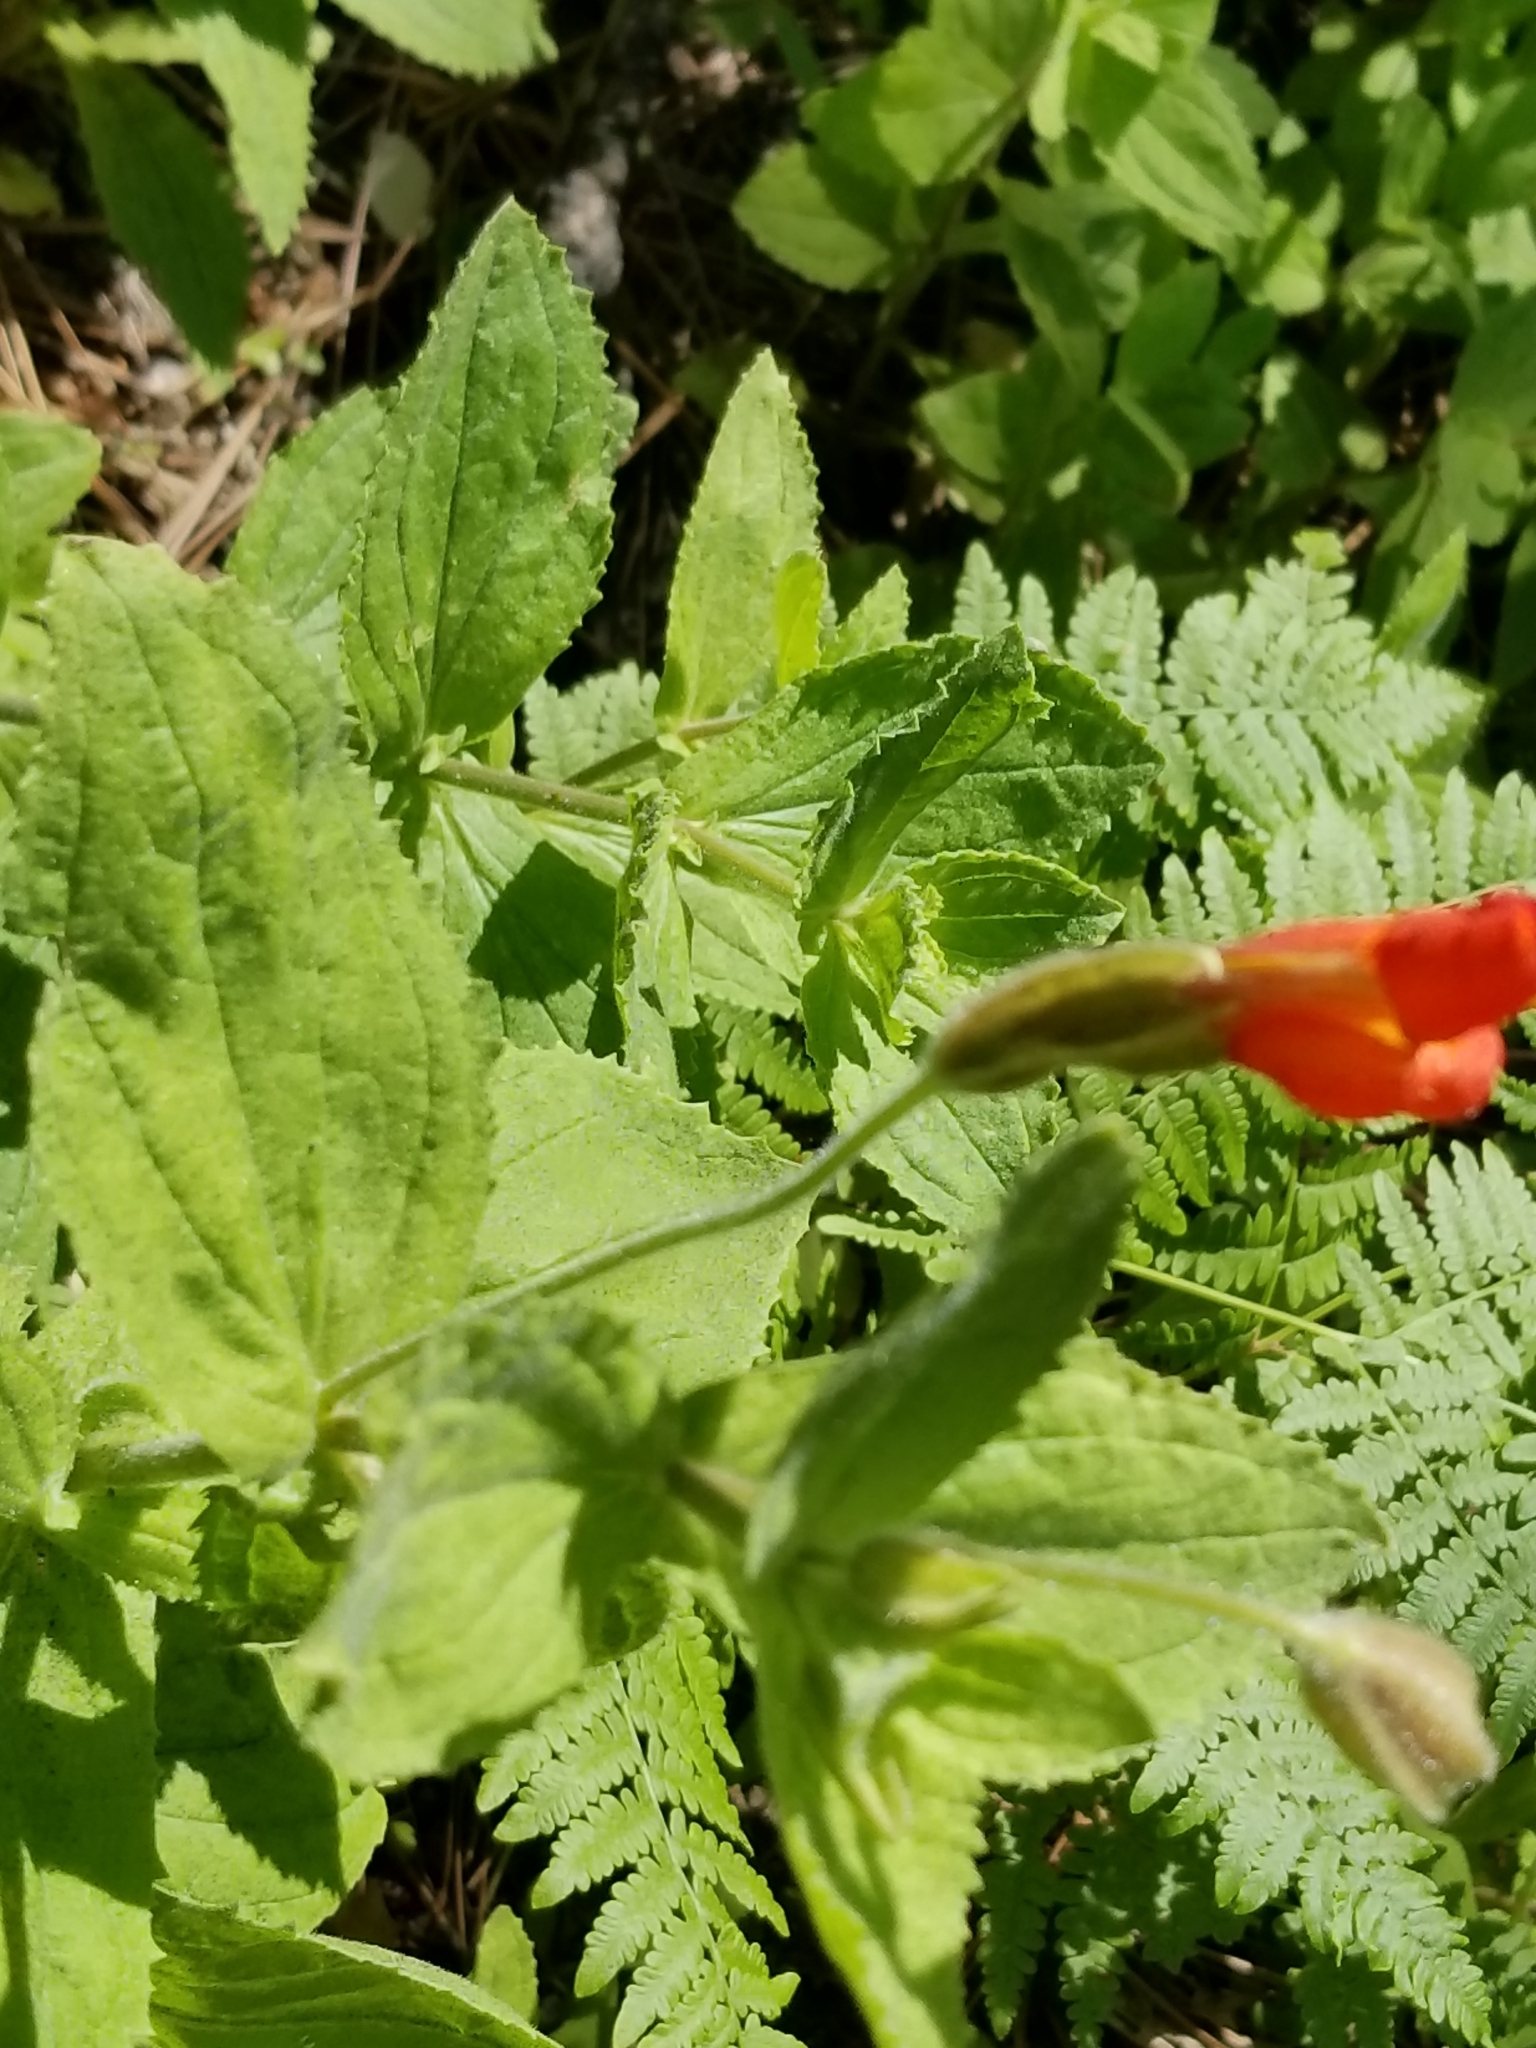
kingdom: Plantae
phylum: Tracheophyta
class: Magnoliopsida
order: Lamiales
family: Phrymaceae
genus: Erythranthe
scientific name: Erythranthe cardinalis
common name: Scarlet monkey-flower
